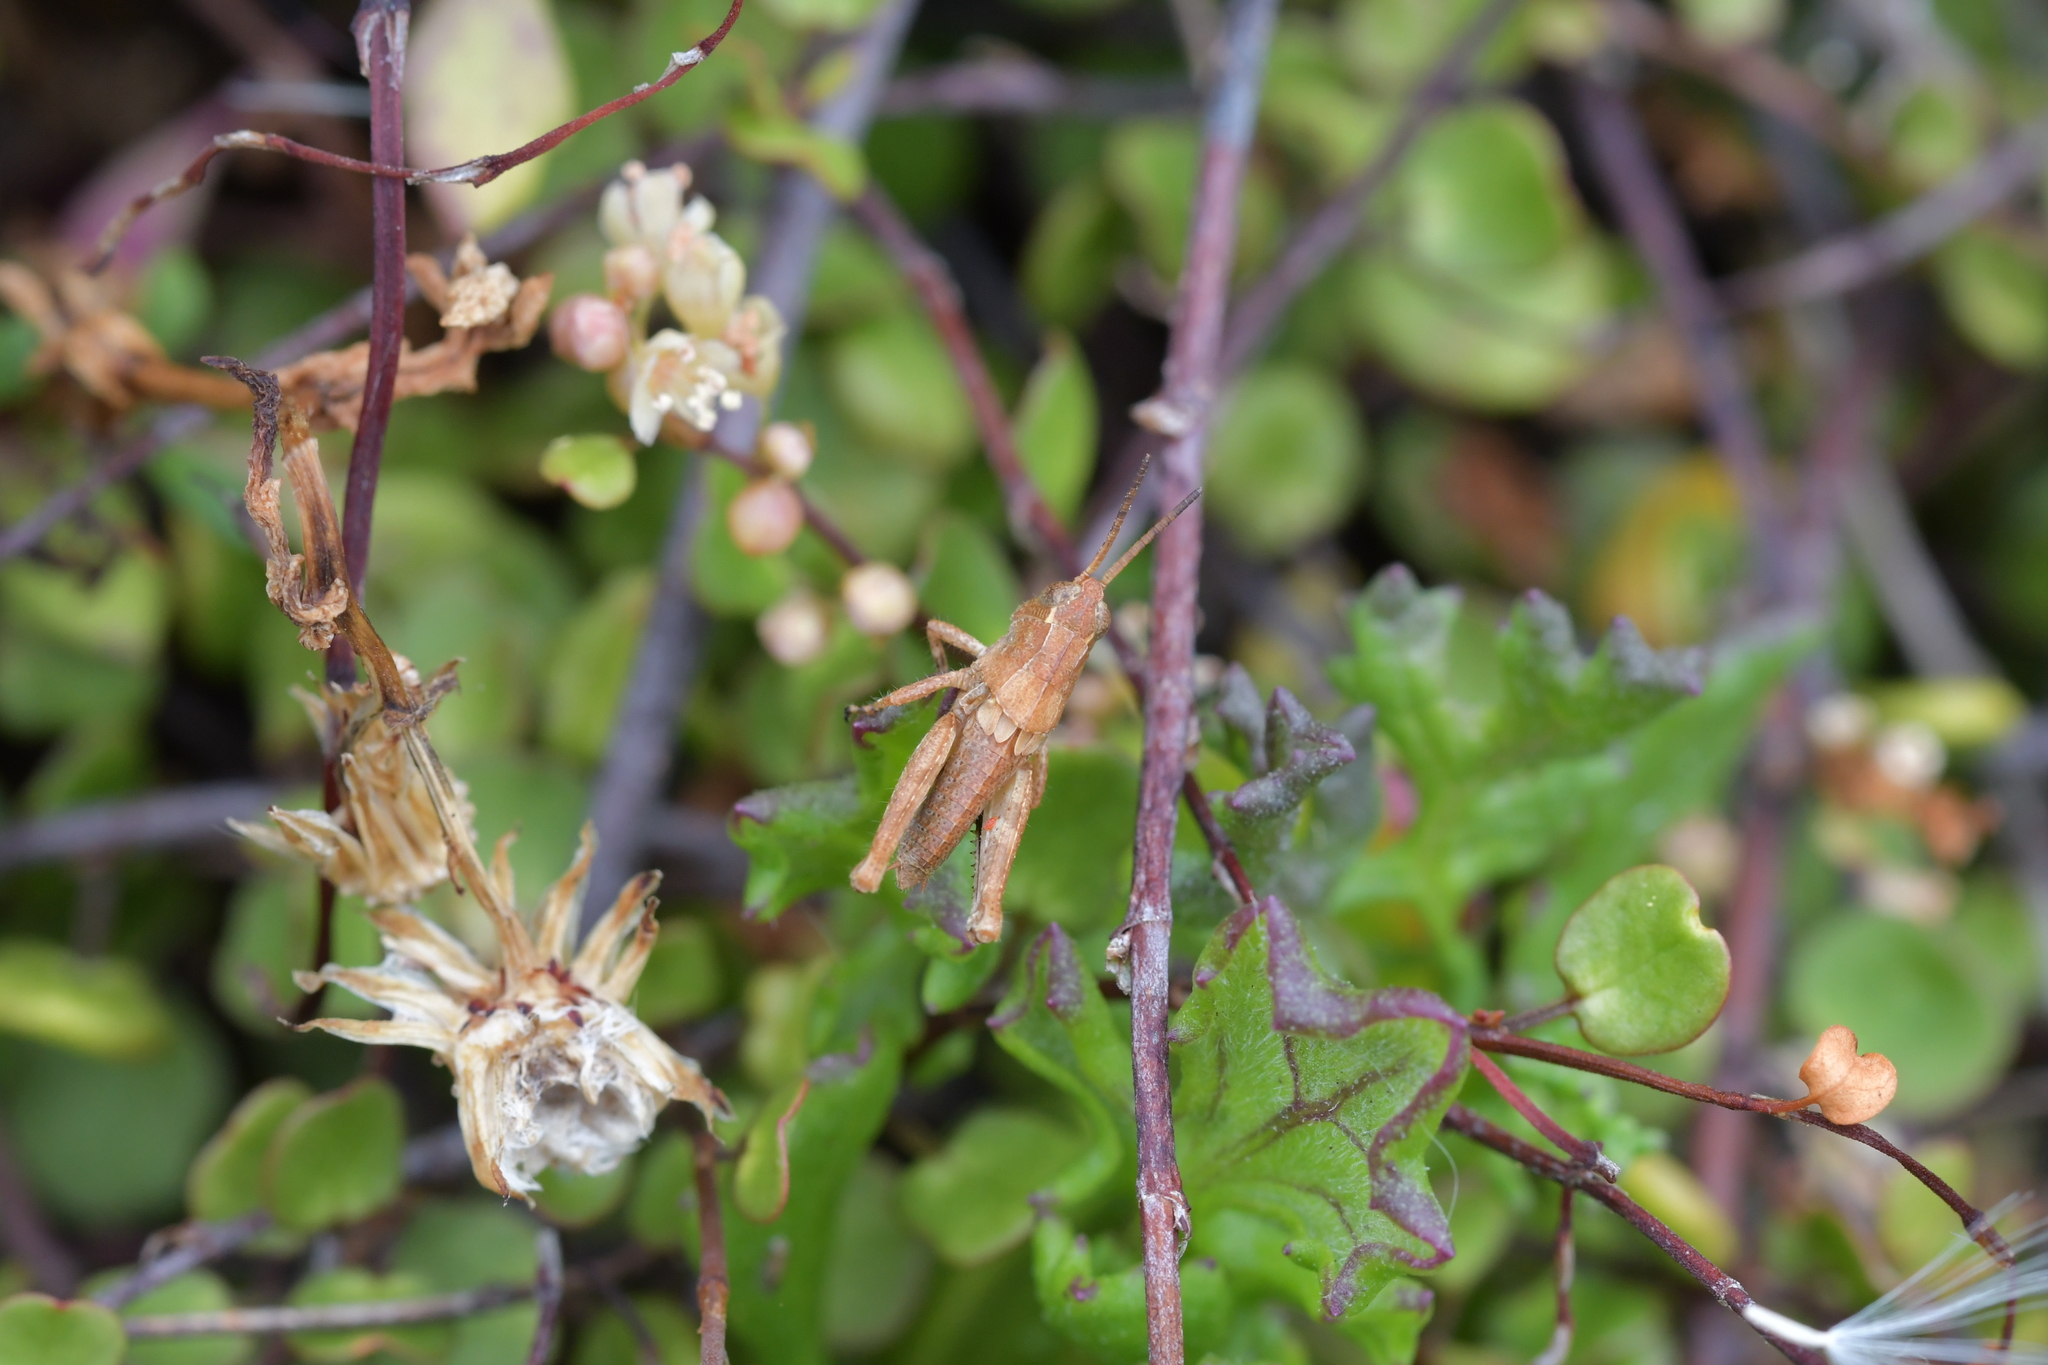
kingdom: Animalia
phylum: Arthropoda
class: Insecta
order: Orthoptera
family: Acrididae
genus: Phaulacridium
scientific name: Phaulacridium marginale
